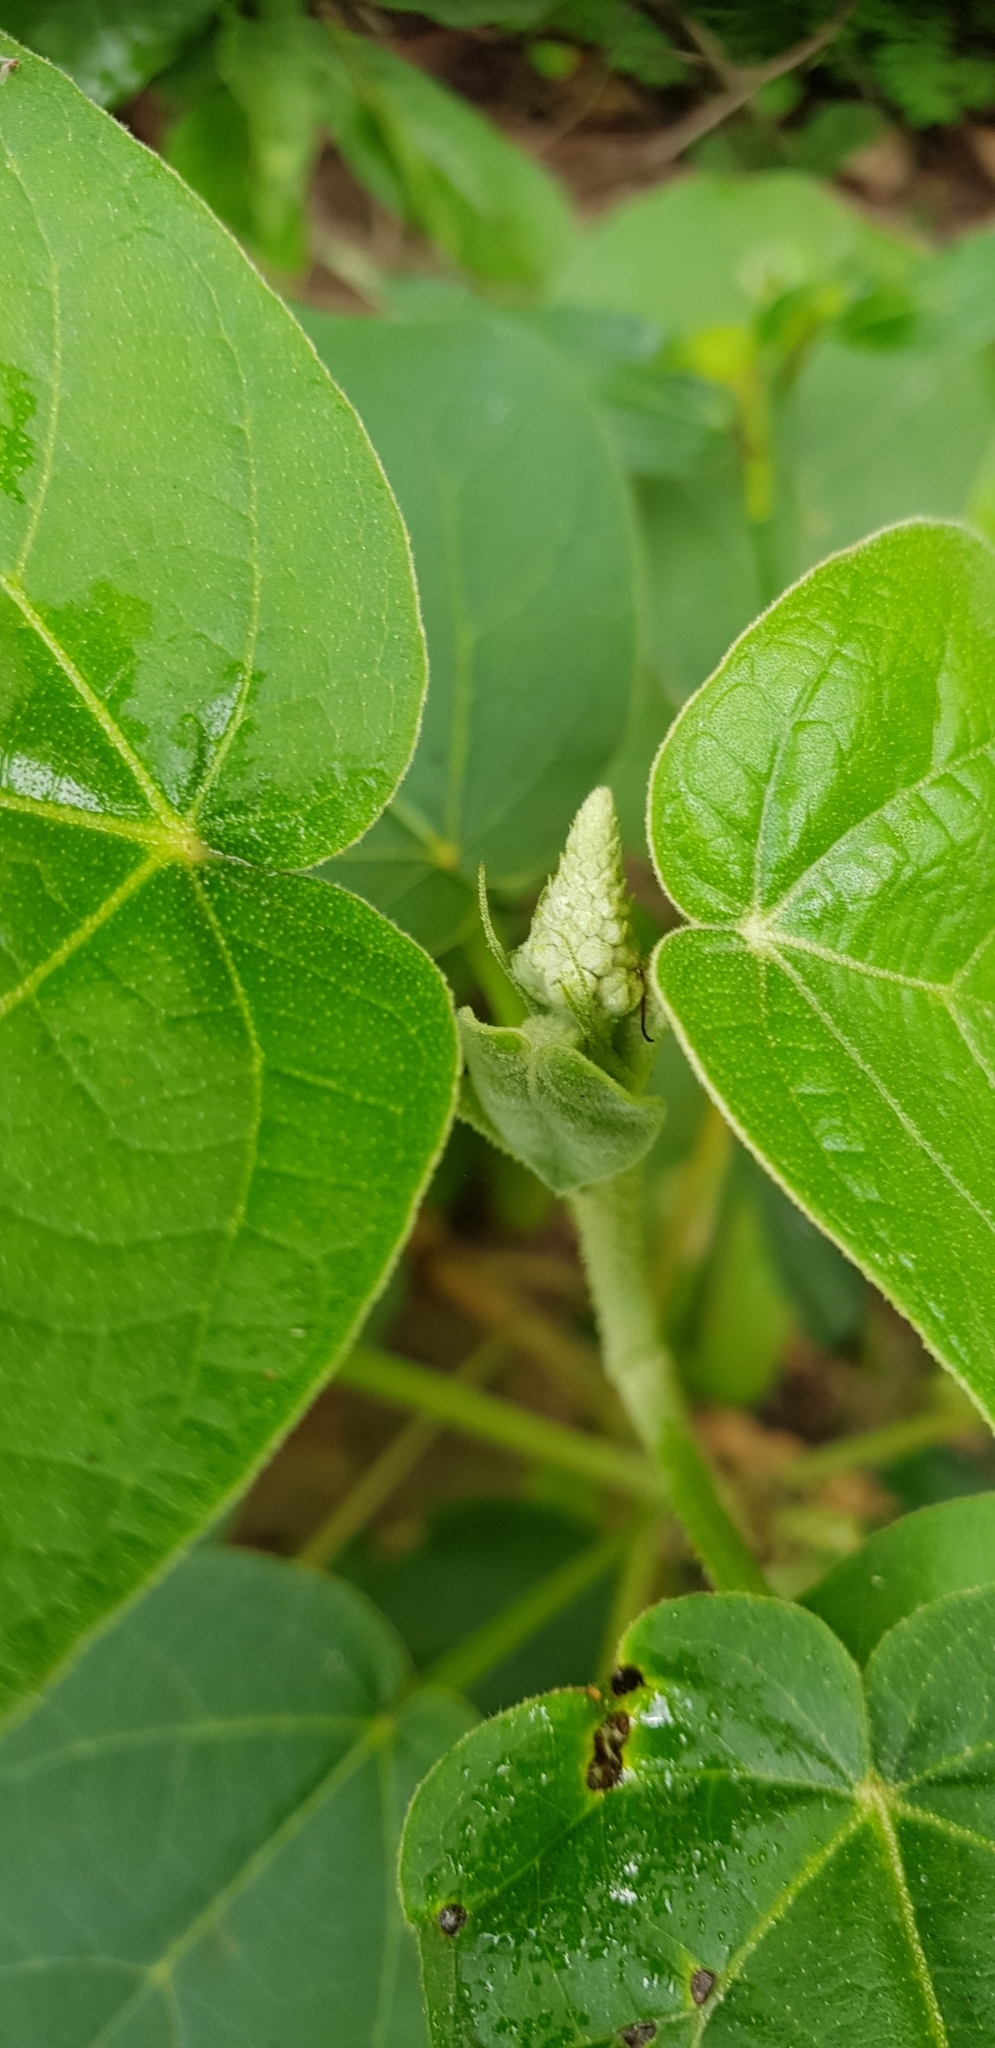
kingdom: Plantae
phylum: Tracheophyta
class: Magnoliopsida
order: Malpighiales
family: Euphorbiaceae
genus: Croton
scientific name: Croton suberosus
